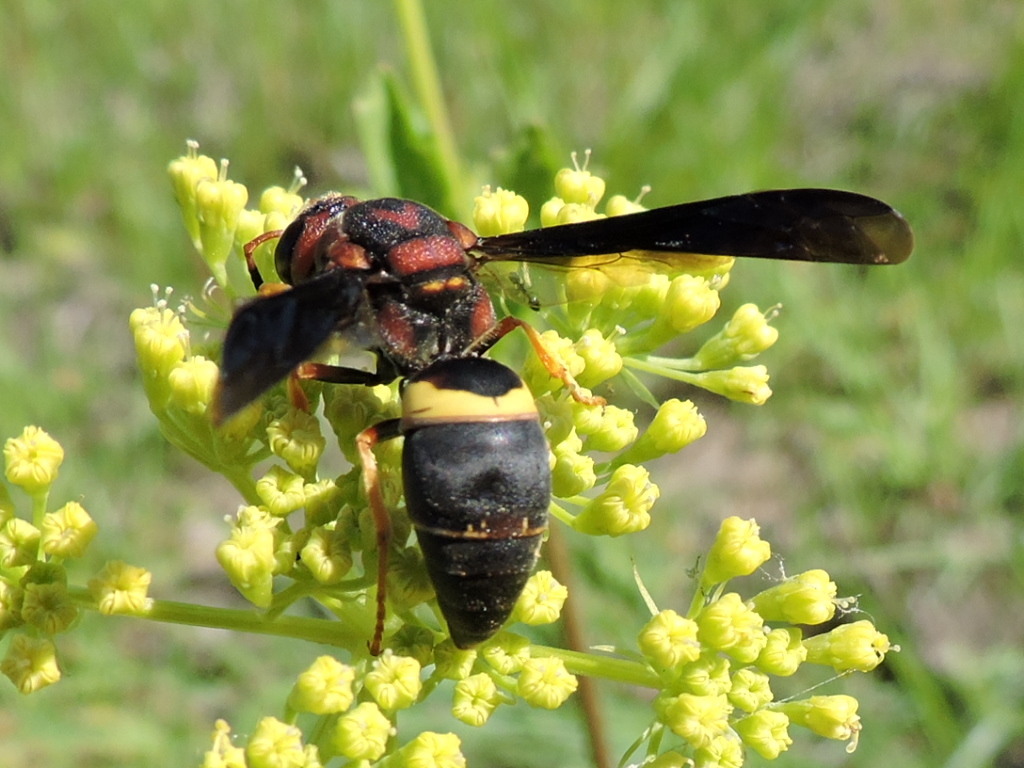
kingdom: Animalia
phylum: Arthropoda
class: Insecta
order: Hymenoptera
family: Eumenidae
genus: Euodynerus
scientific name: Euodynerus crypticus
